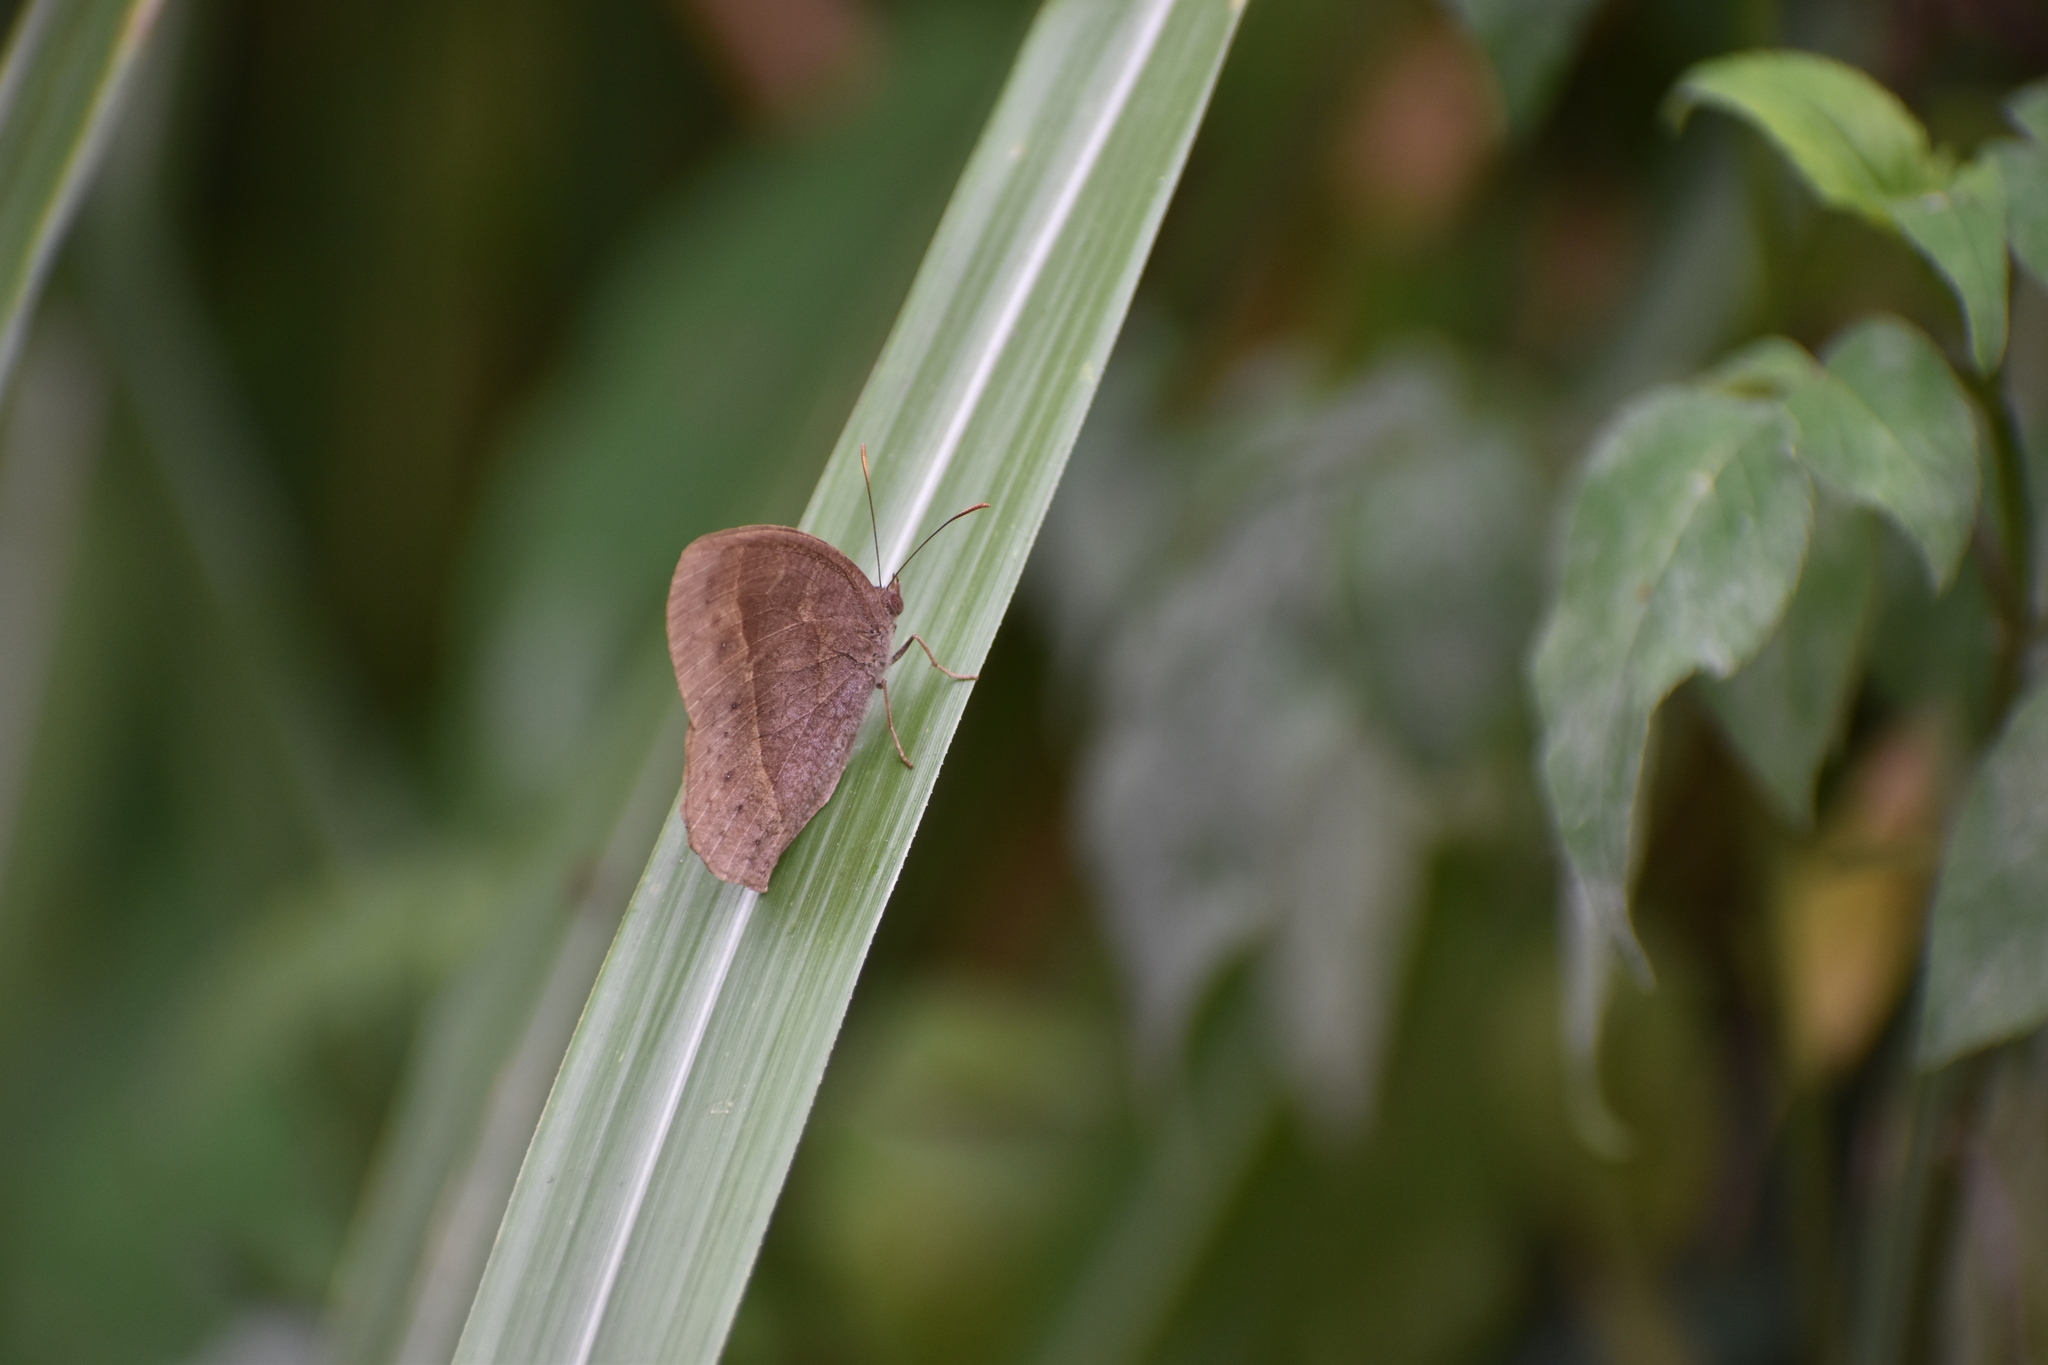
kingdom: Animalia
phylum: Arthropoda
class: Insecta
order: Lepidoptera
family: Nymphalidae
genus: Mycalesis
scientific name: Mycalesis mineus
